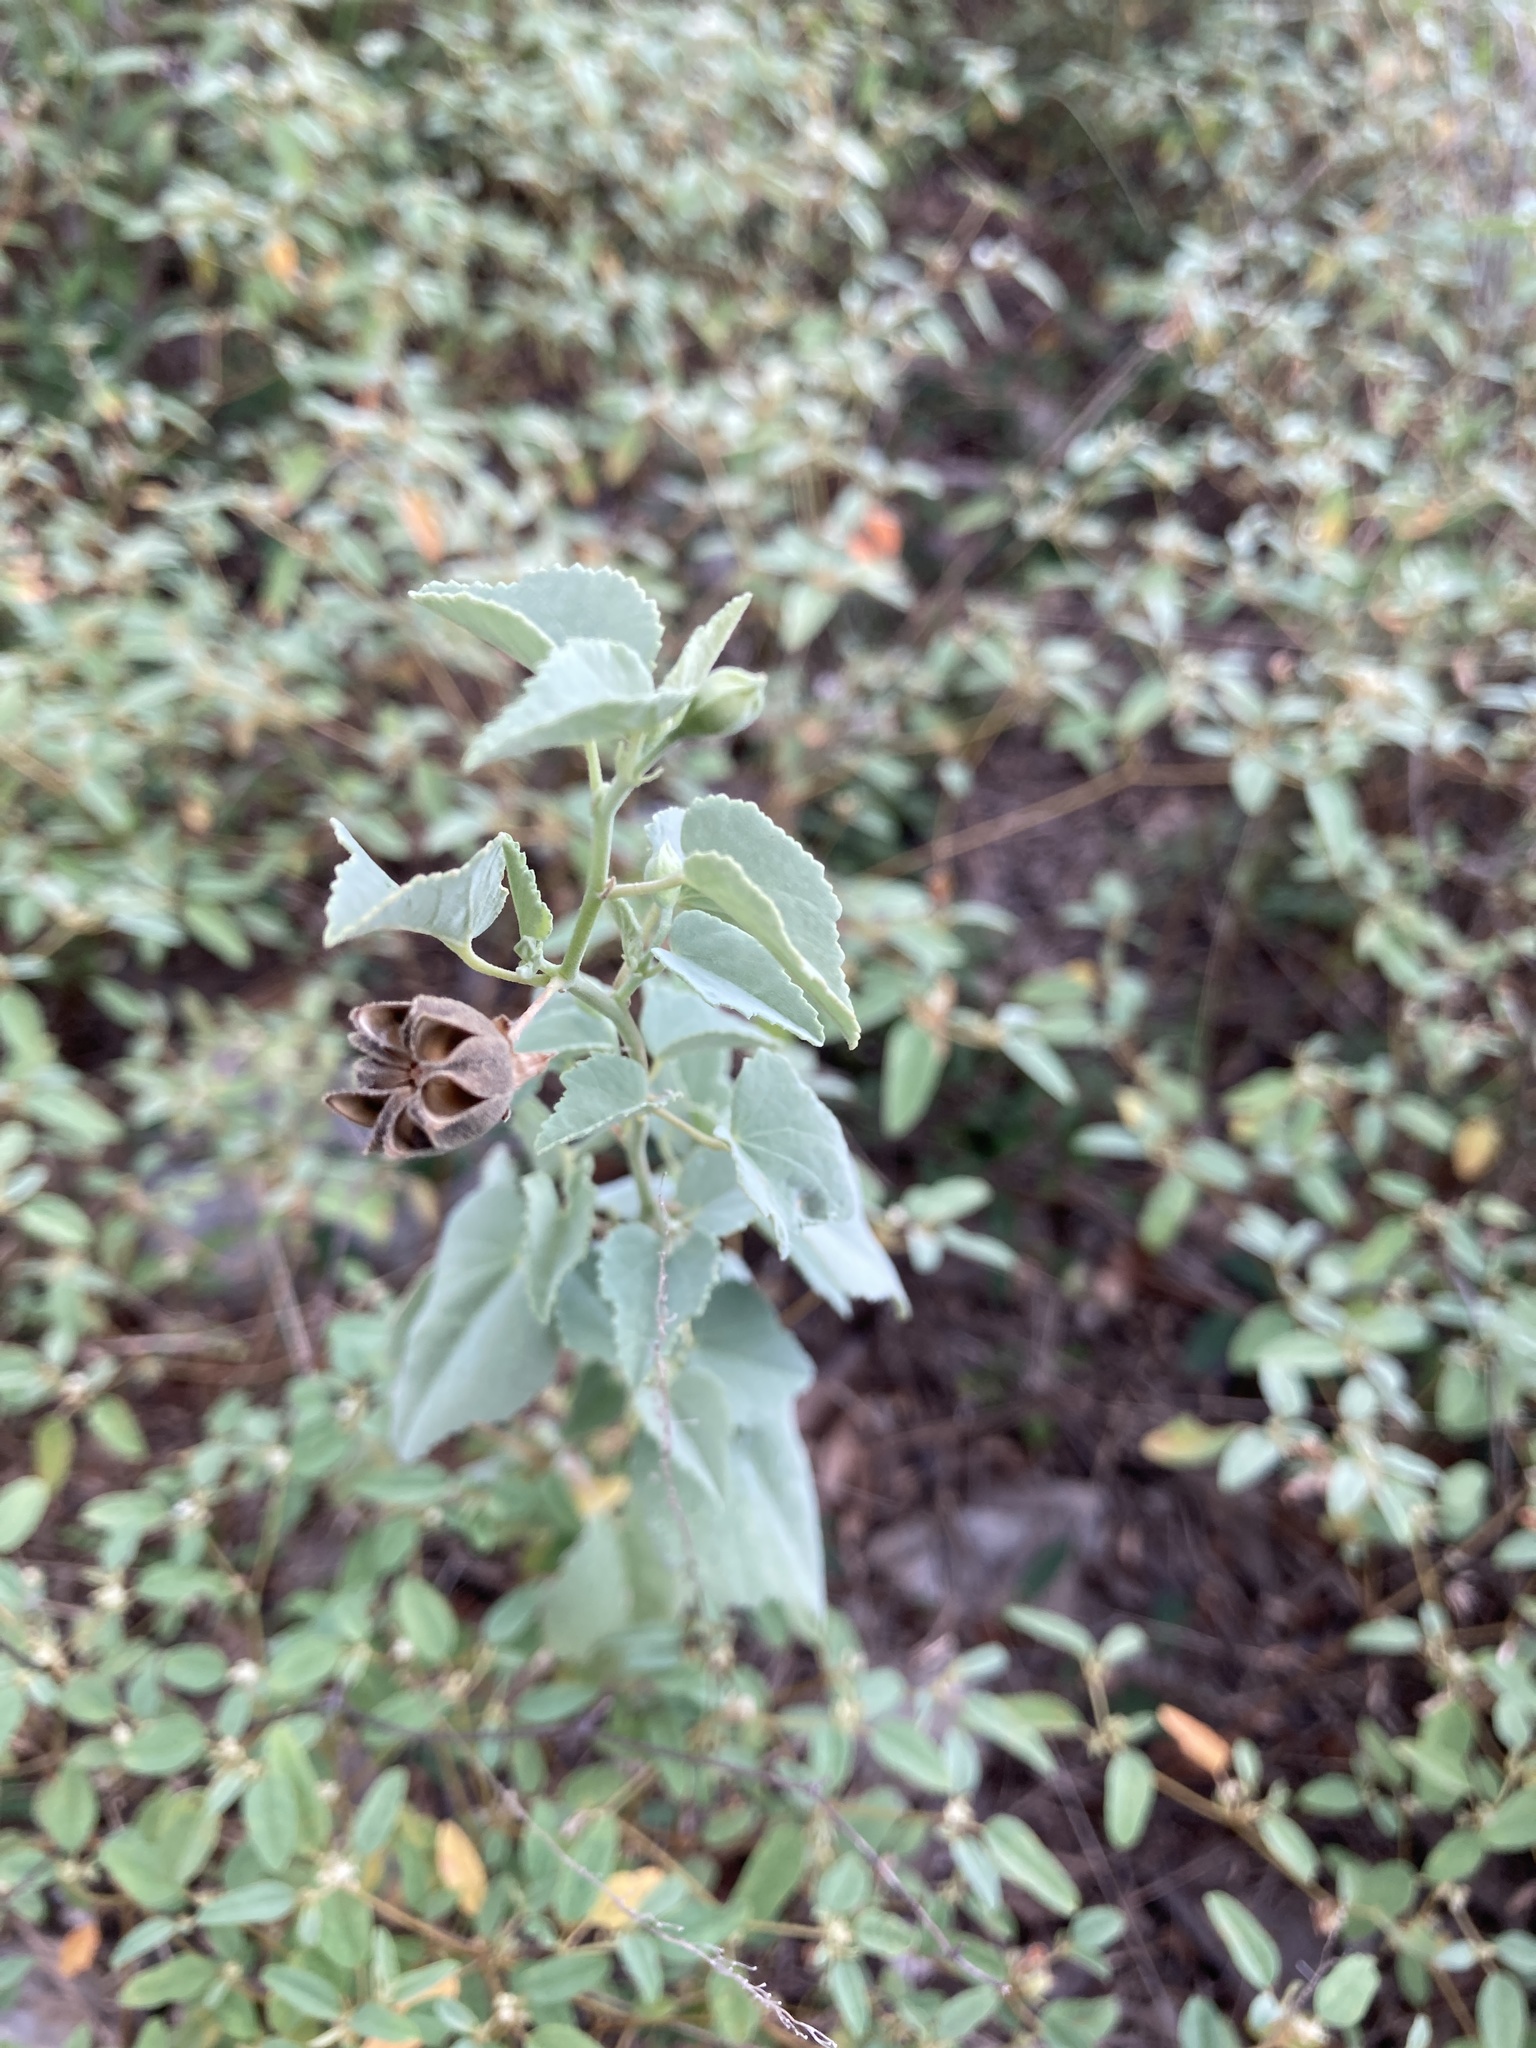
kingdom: Plantae
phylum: Tracheophyta
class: Magnoliopsida
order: Malvales
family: Malvaceae
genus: Abutilon
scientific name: Abutilon fruticosum
